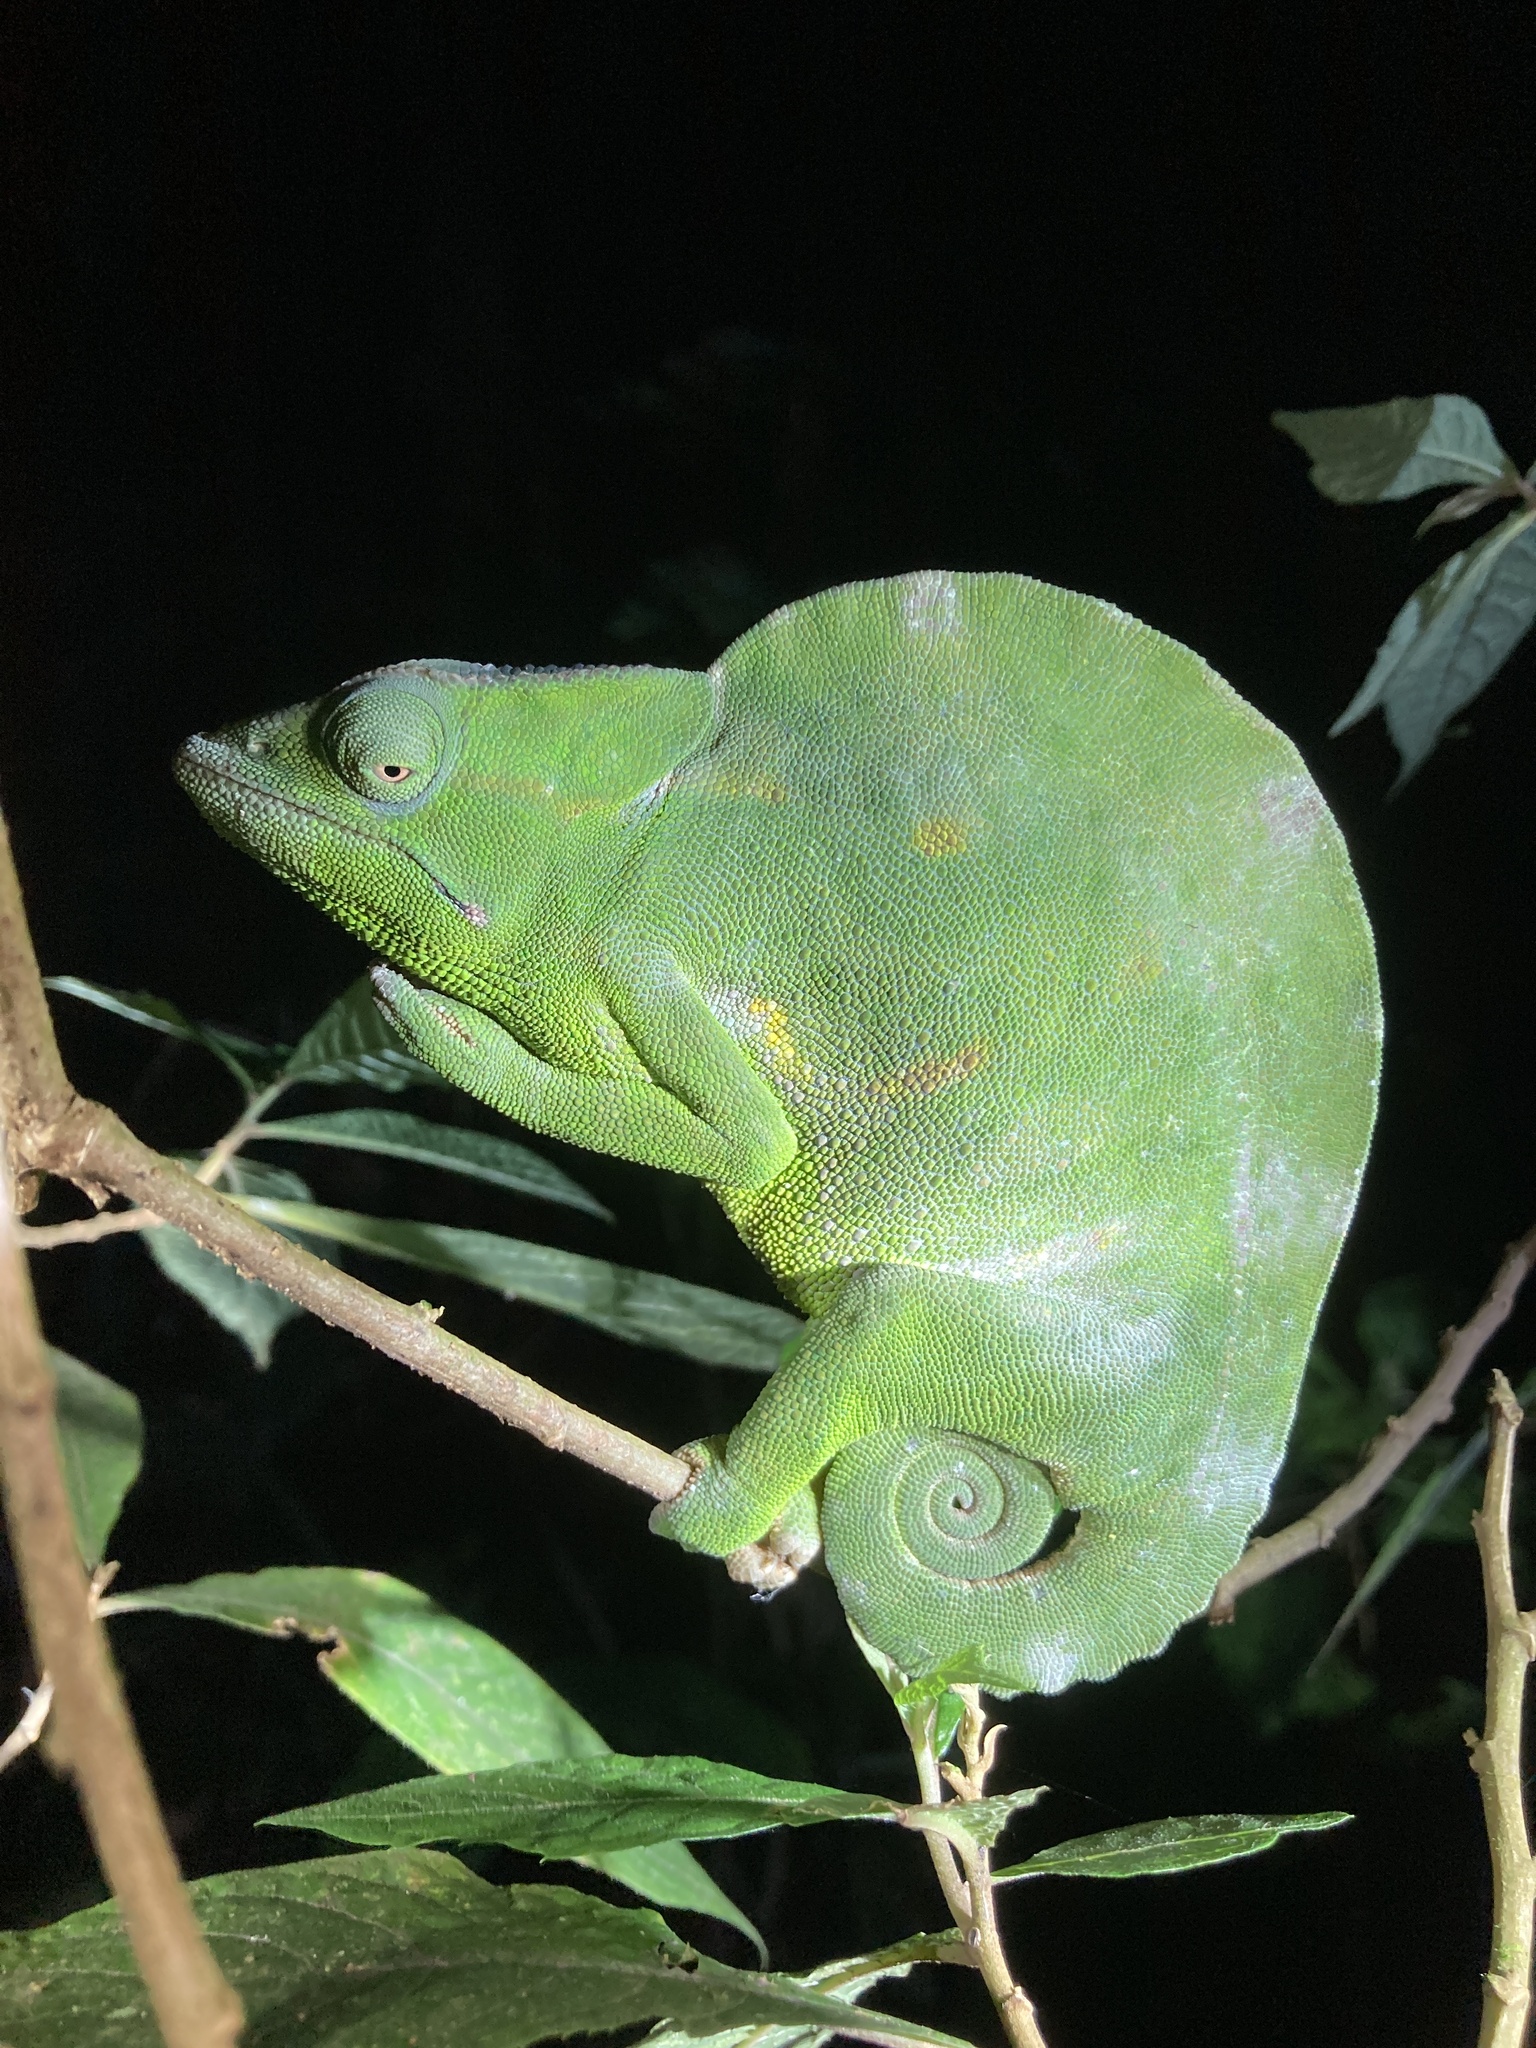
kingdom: Animalia
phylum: Chordata
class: Squamata
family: Chamaeleonidae
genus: Trioceros
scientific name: Trioceros deremensis
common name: Wavy chameleon
